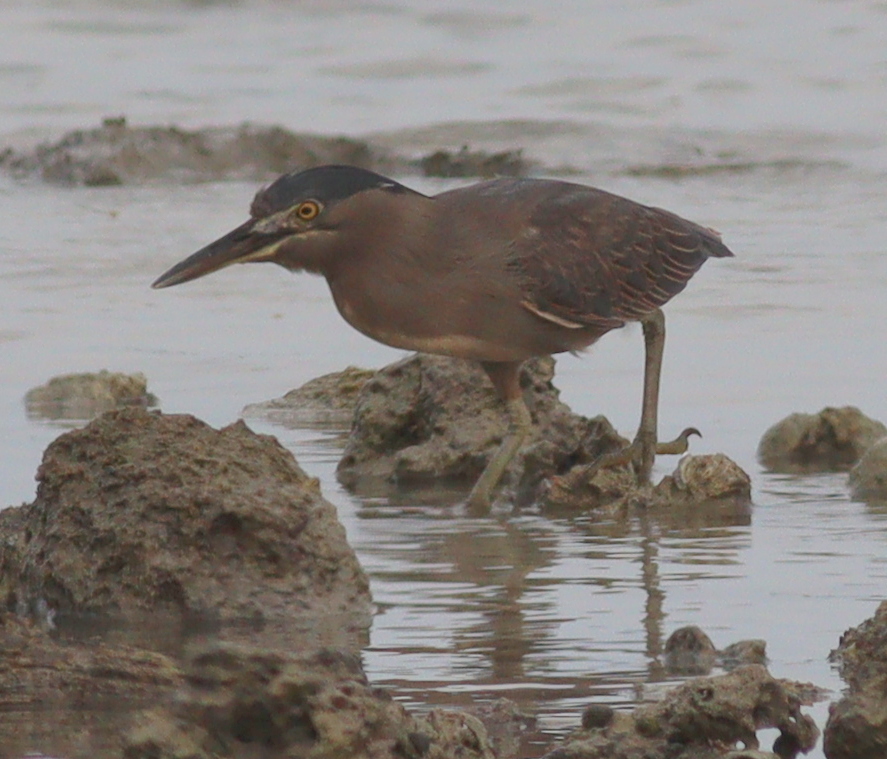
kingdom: Animalia
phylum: Chordata
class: Aves
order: Pelecaniformes
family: Ardeidae
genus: Butorides
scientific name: Butorides striata
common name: Striated heron
